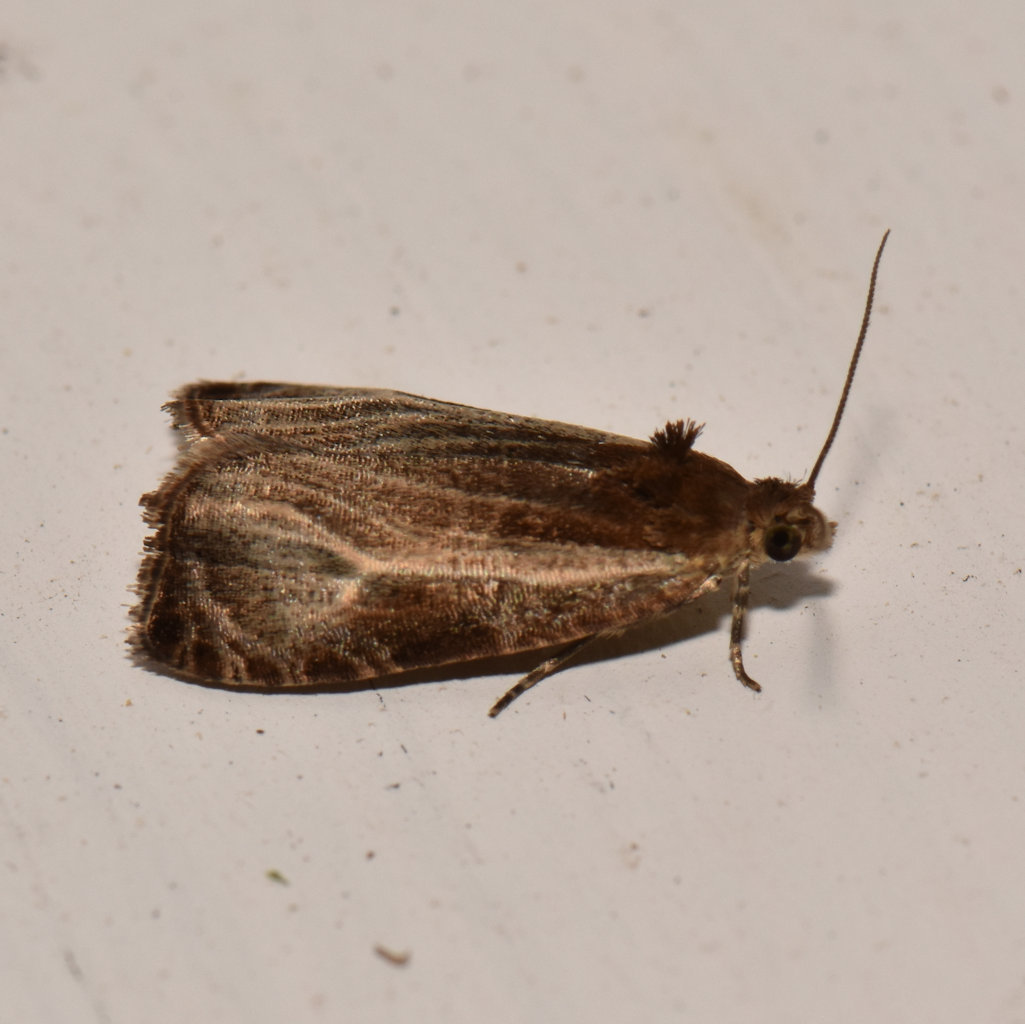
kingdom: Animalia
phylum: Arthropoda
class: Insecta
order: Lepidoptera
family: Tortricidae
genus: Olethreutes
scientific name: Olethreutes quadrifidum
